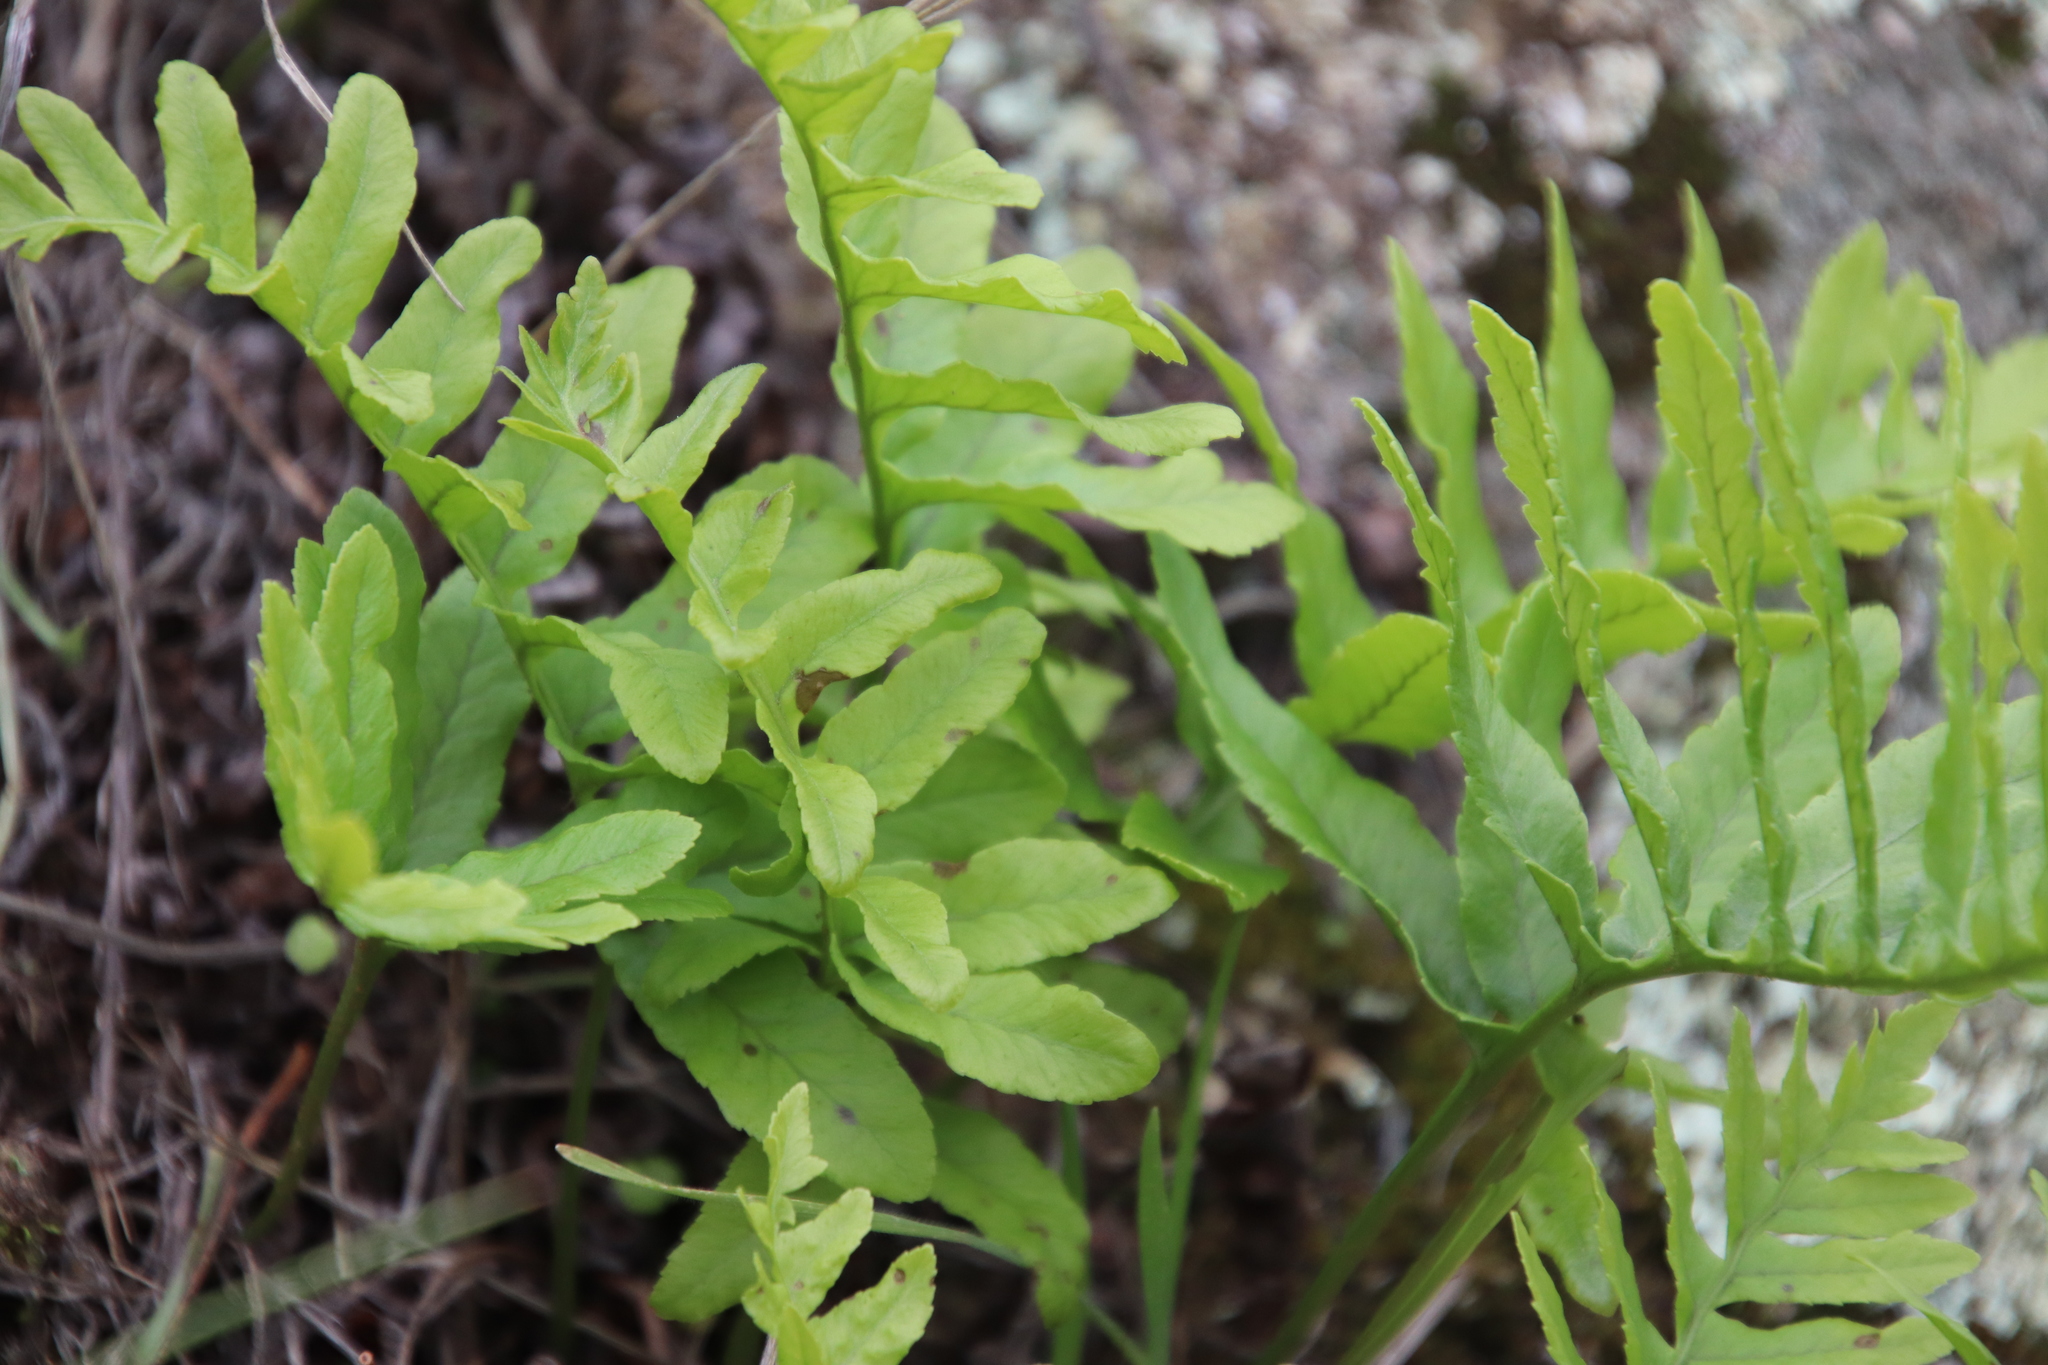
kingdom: Plantae
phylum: Tracheophyta
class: Polypodiopsida
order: Polypodiales
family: Polypodiaceae
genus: Polypodium
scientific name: Polypodium californicum
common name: California polypody
